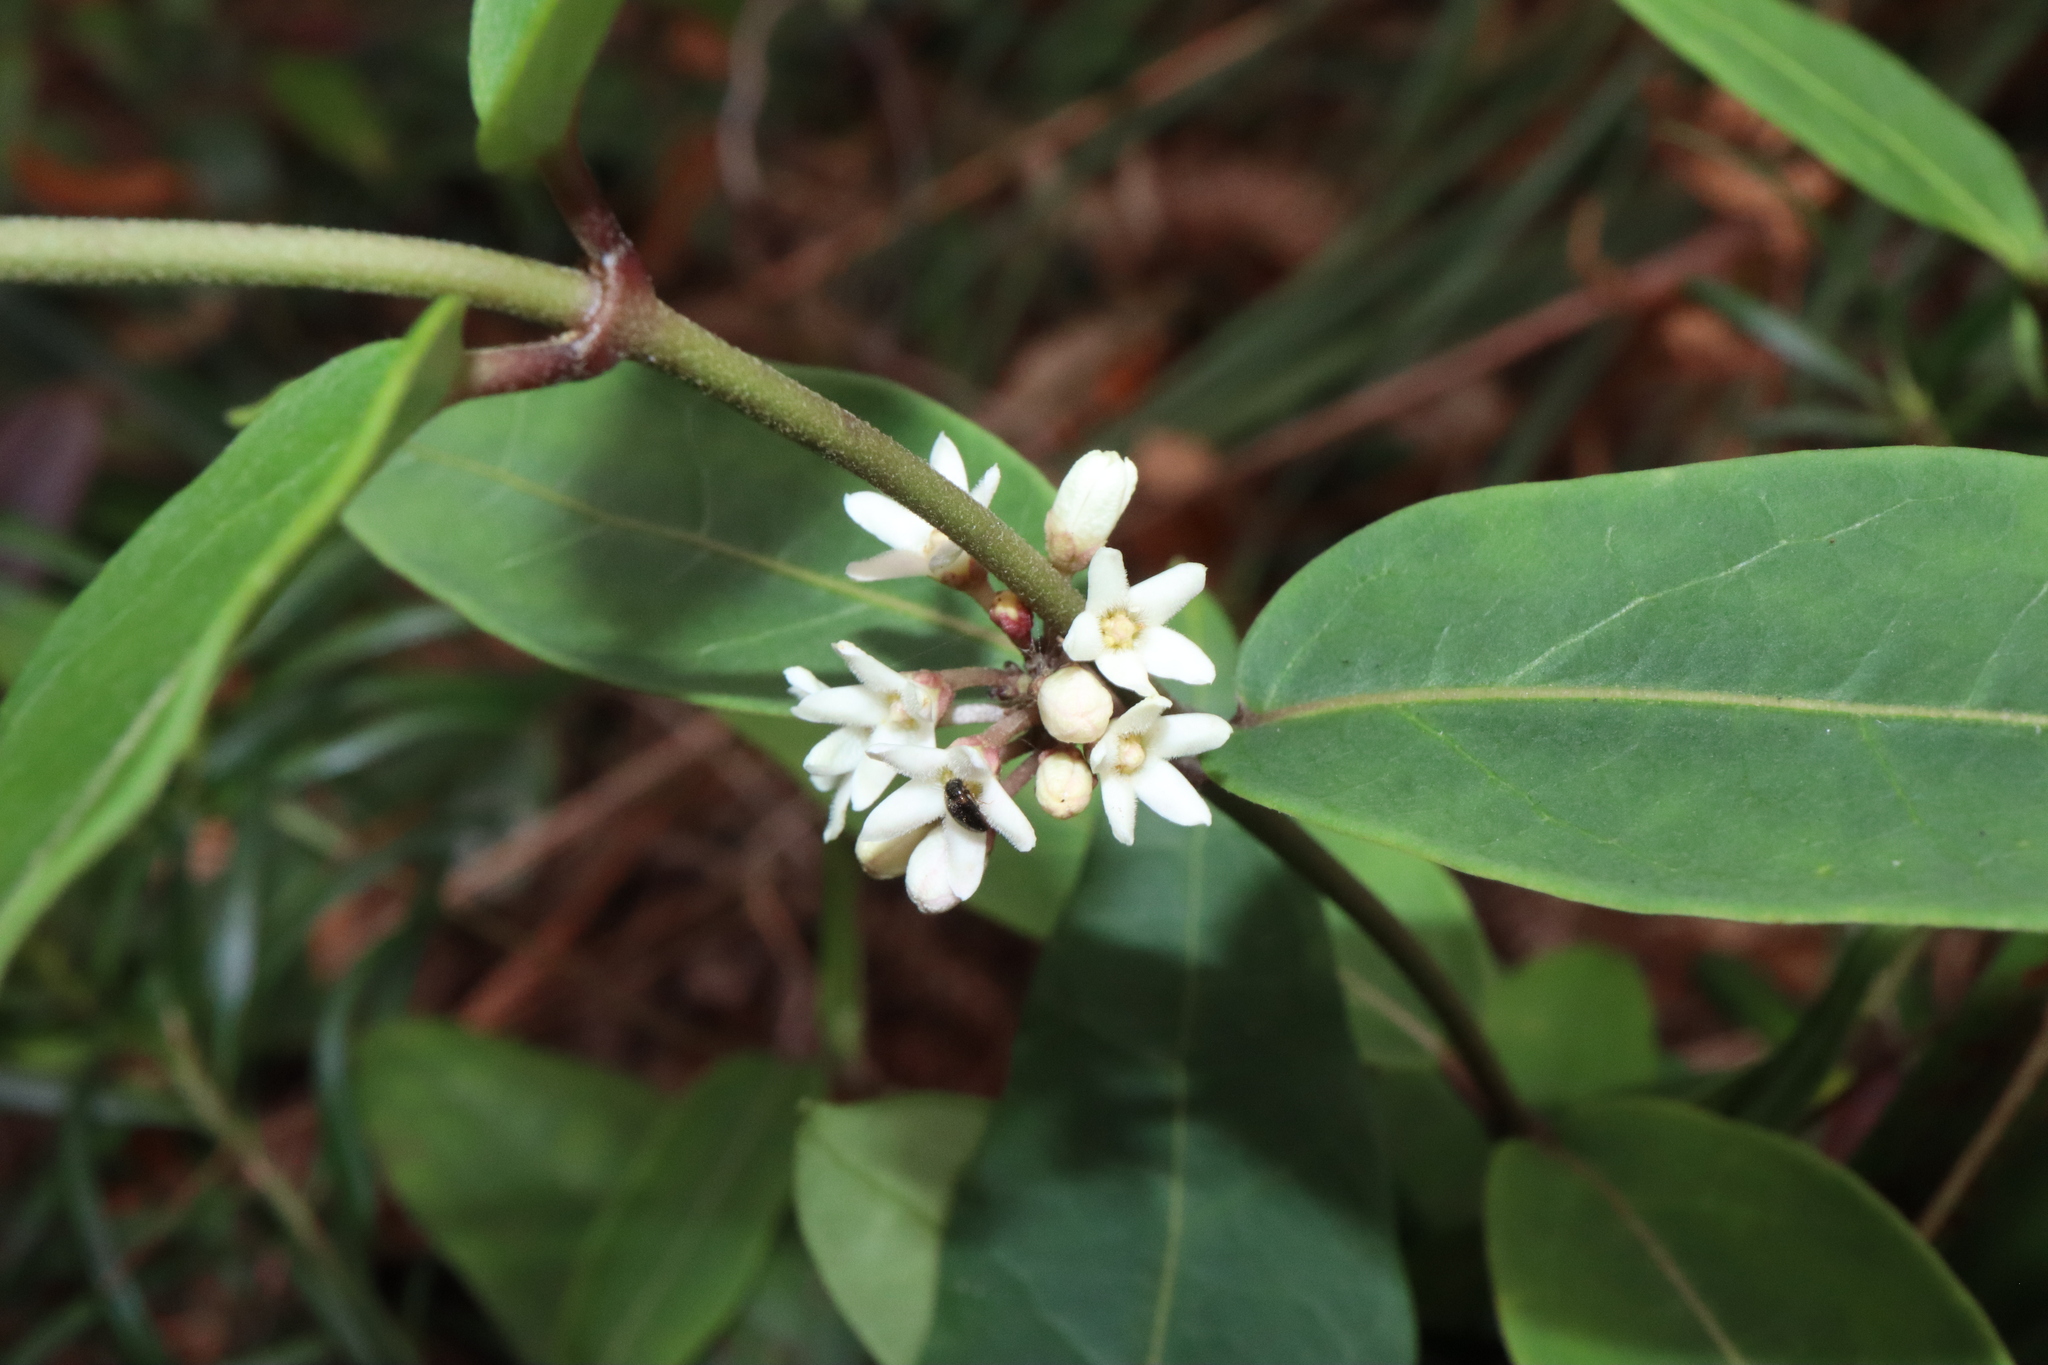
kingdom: Plantae
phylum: Tracheophyta
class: Magnoliopsida
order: Gentianales
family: Apocynaceae
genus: Leichhardtia
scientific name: Leichhardtia suaveolens
